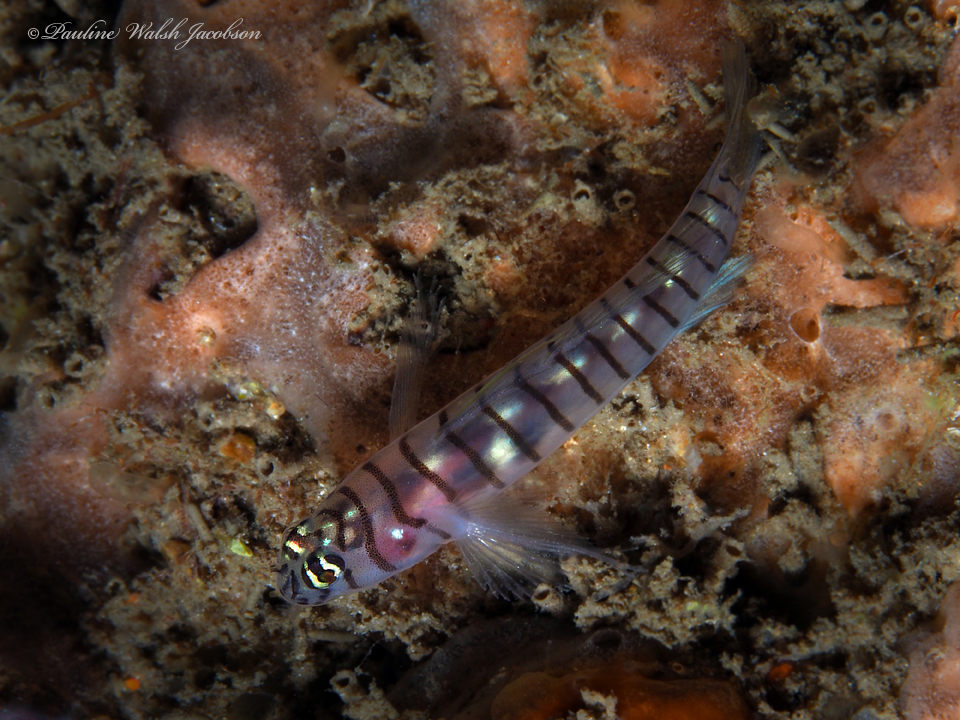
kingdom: Animalia
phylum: Chordata
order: Perciformes
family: Gobiidae
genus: Tigrigobius
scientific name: Tigrigobius macrodon
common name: Tiger goby
